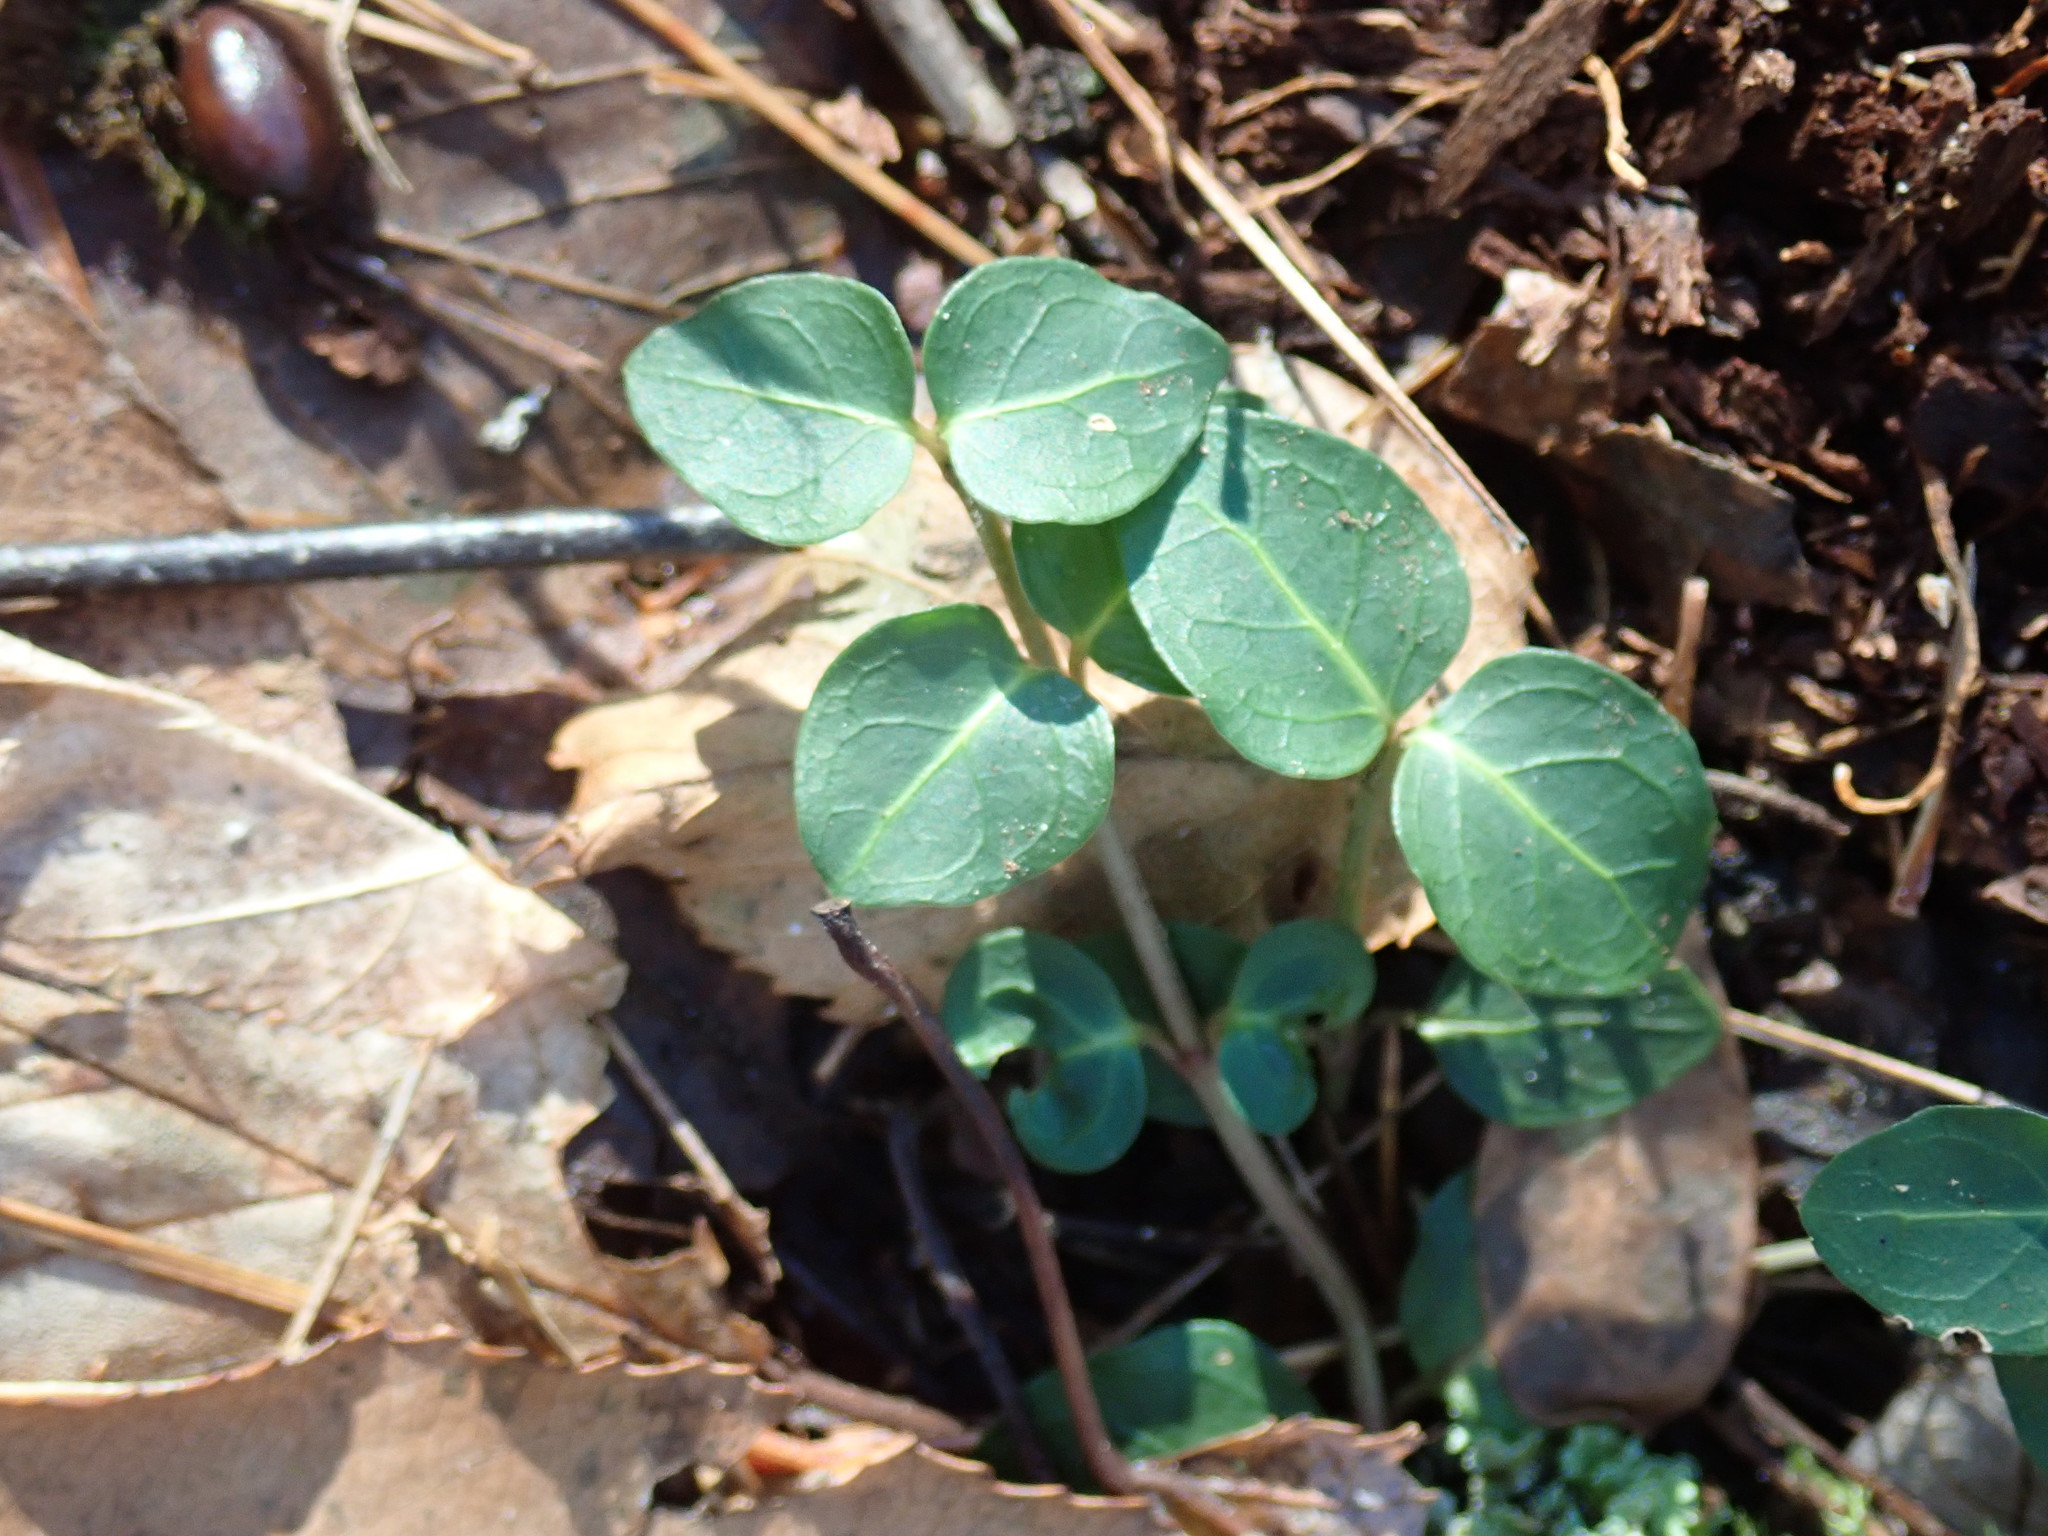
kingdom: Plantae
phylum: Tracheophyta
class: Magnoliopsida
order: Gentianales
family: Rubiaceae
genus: Mitchella
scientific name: Mitchella repens
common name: Partridge-berry
